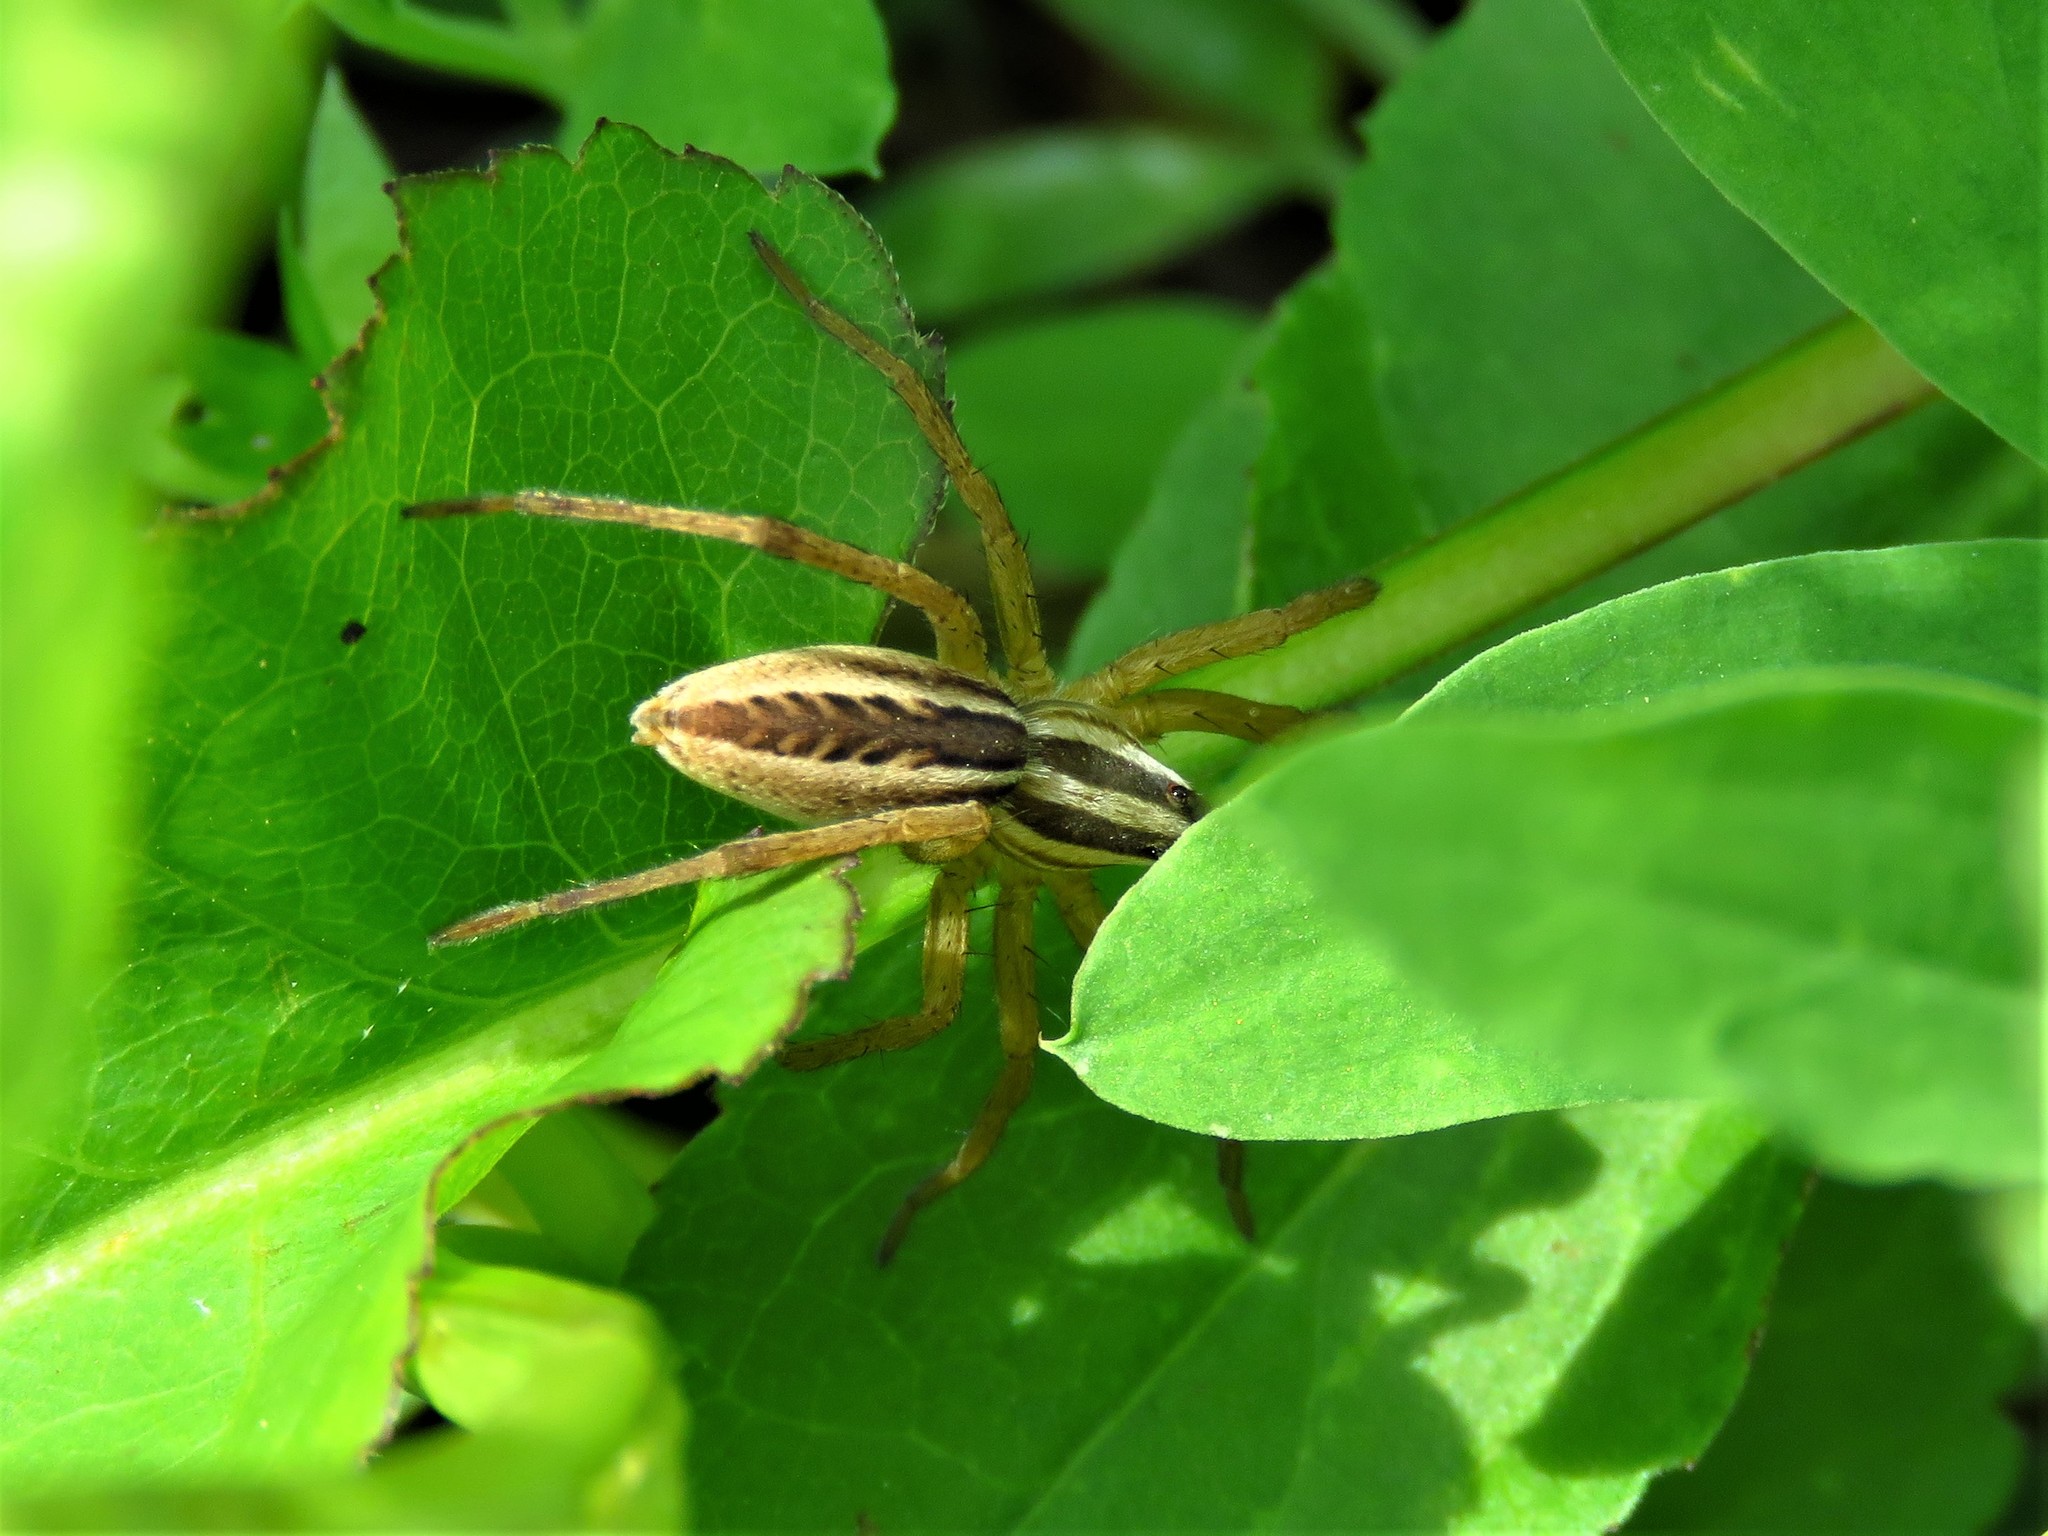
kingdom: Animalia
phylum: Arthropoda
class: Arachnida
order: Araneae
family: Lycosidae
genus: Rabidosa
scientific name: Rabidosa rabida
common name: Rabid wolf spider
